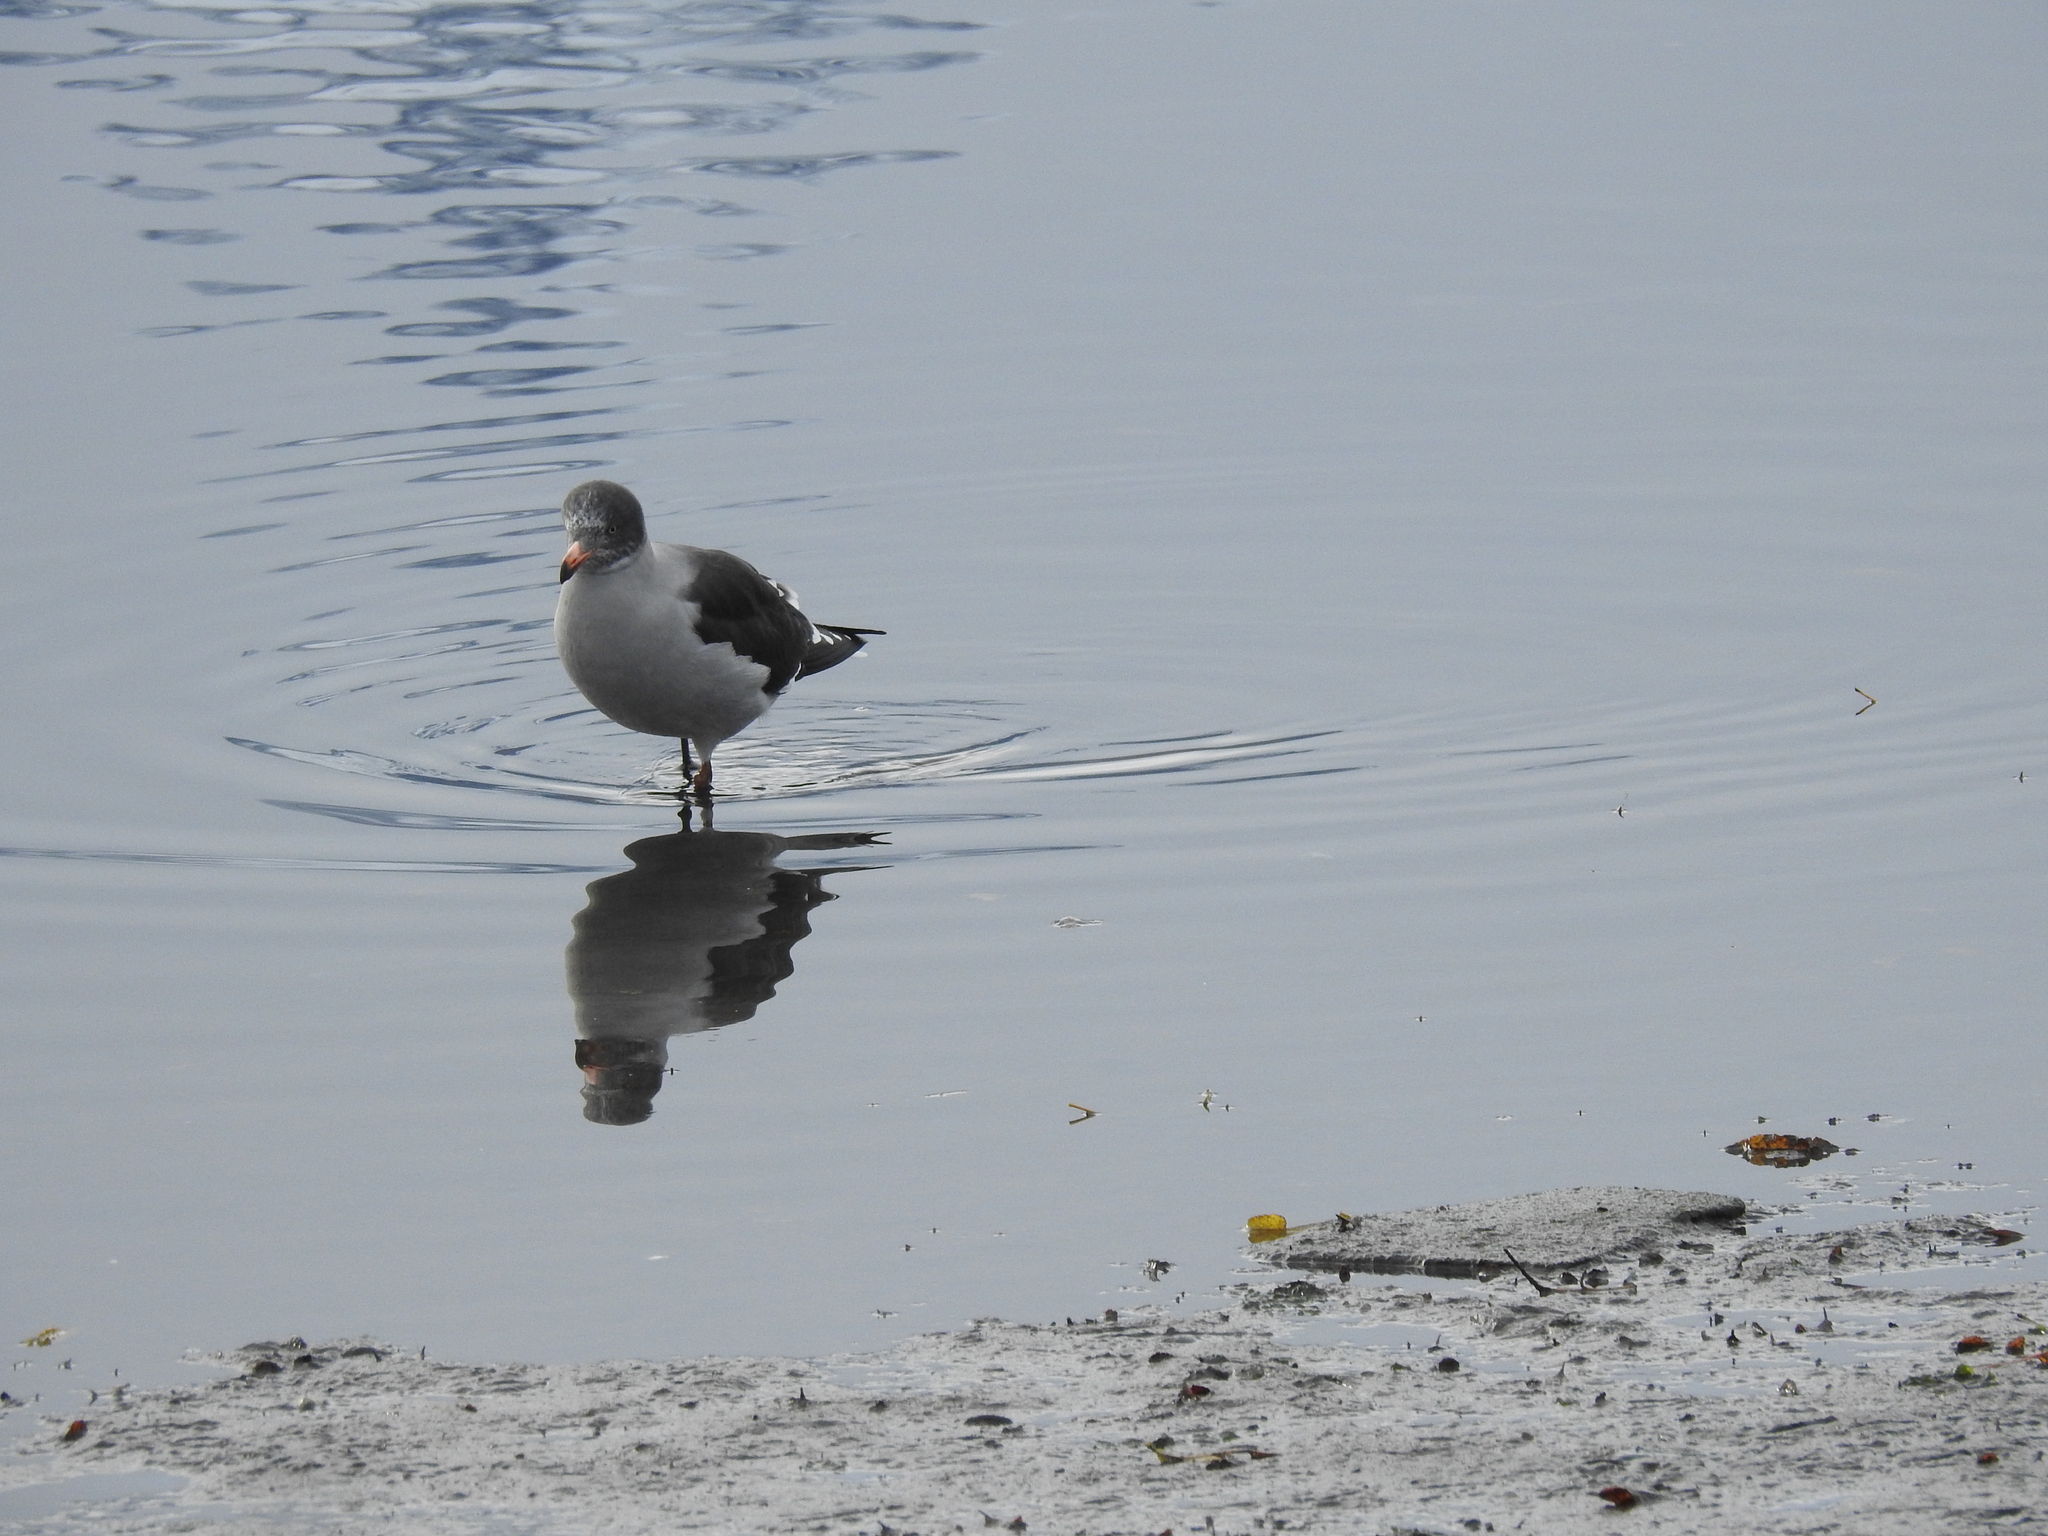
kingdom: Animalia
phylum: Chordata
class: Aves
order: Charadriiformes
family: Laridae
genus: Leucophaeus
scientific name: Leucophaeus scoresbii
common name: Dolphin gull
